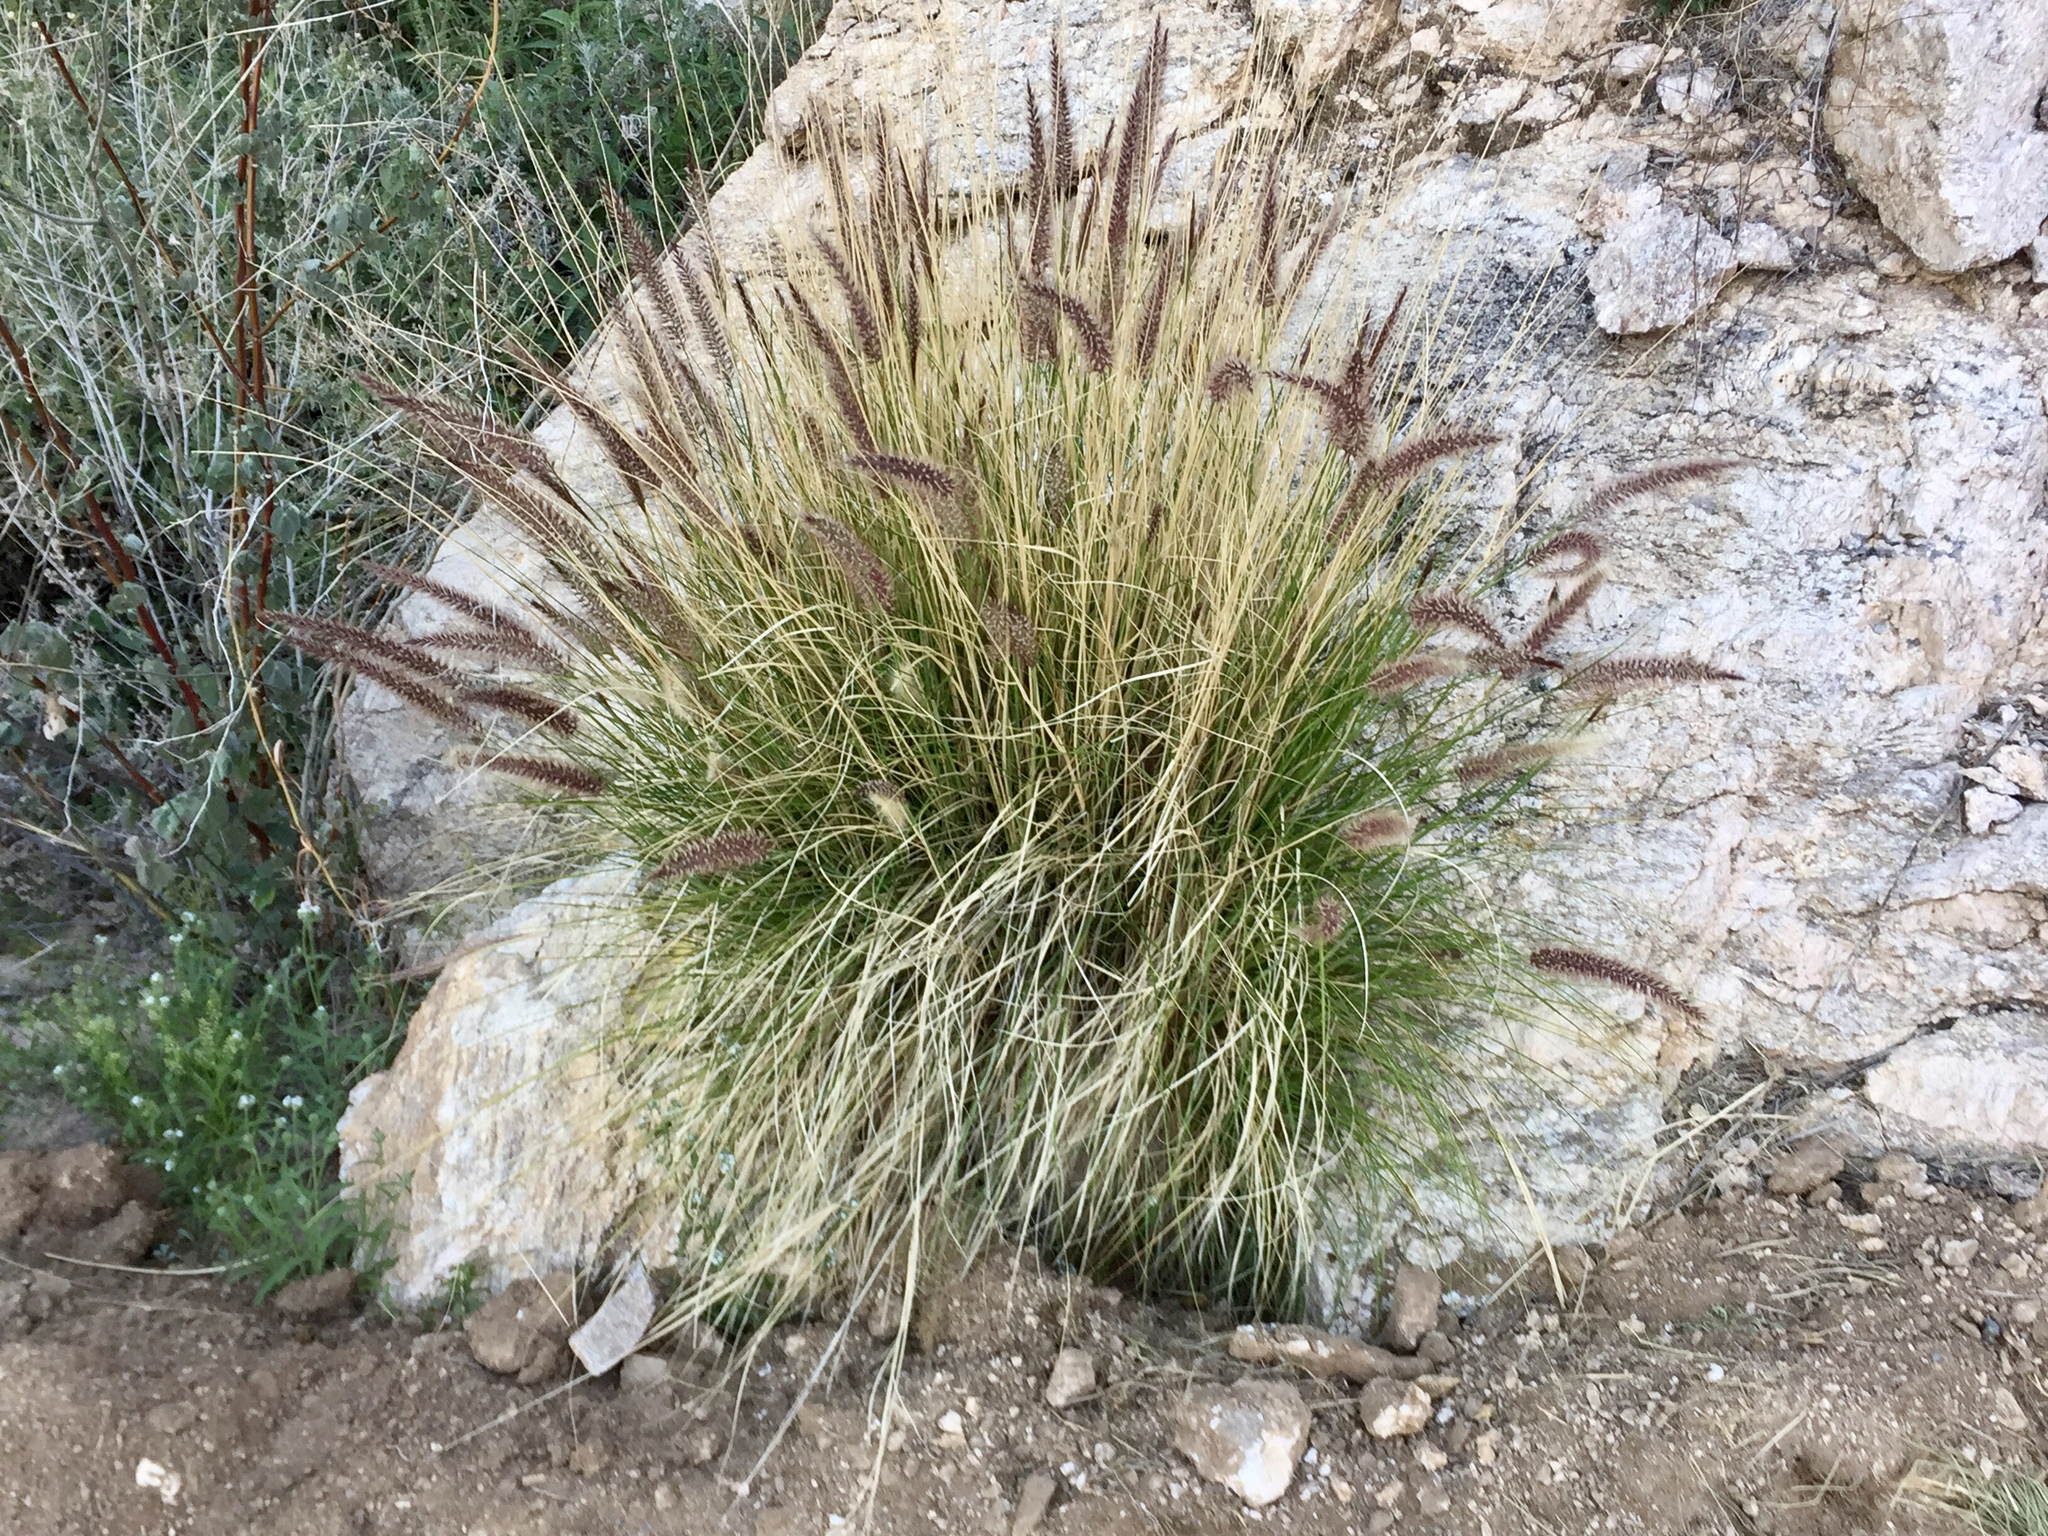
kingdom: Plantae
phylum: Tracheophyta
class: Liliopsida
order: Poales
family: Poaceae
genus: Cenchrus
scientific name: Cenchrus setaceus
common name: Crimson fountaingrass
